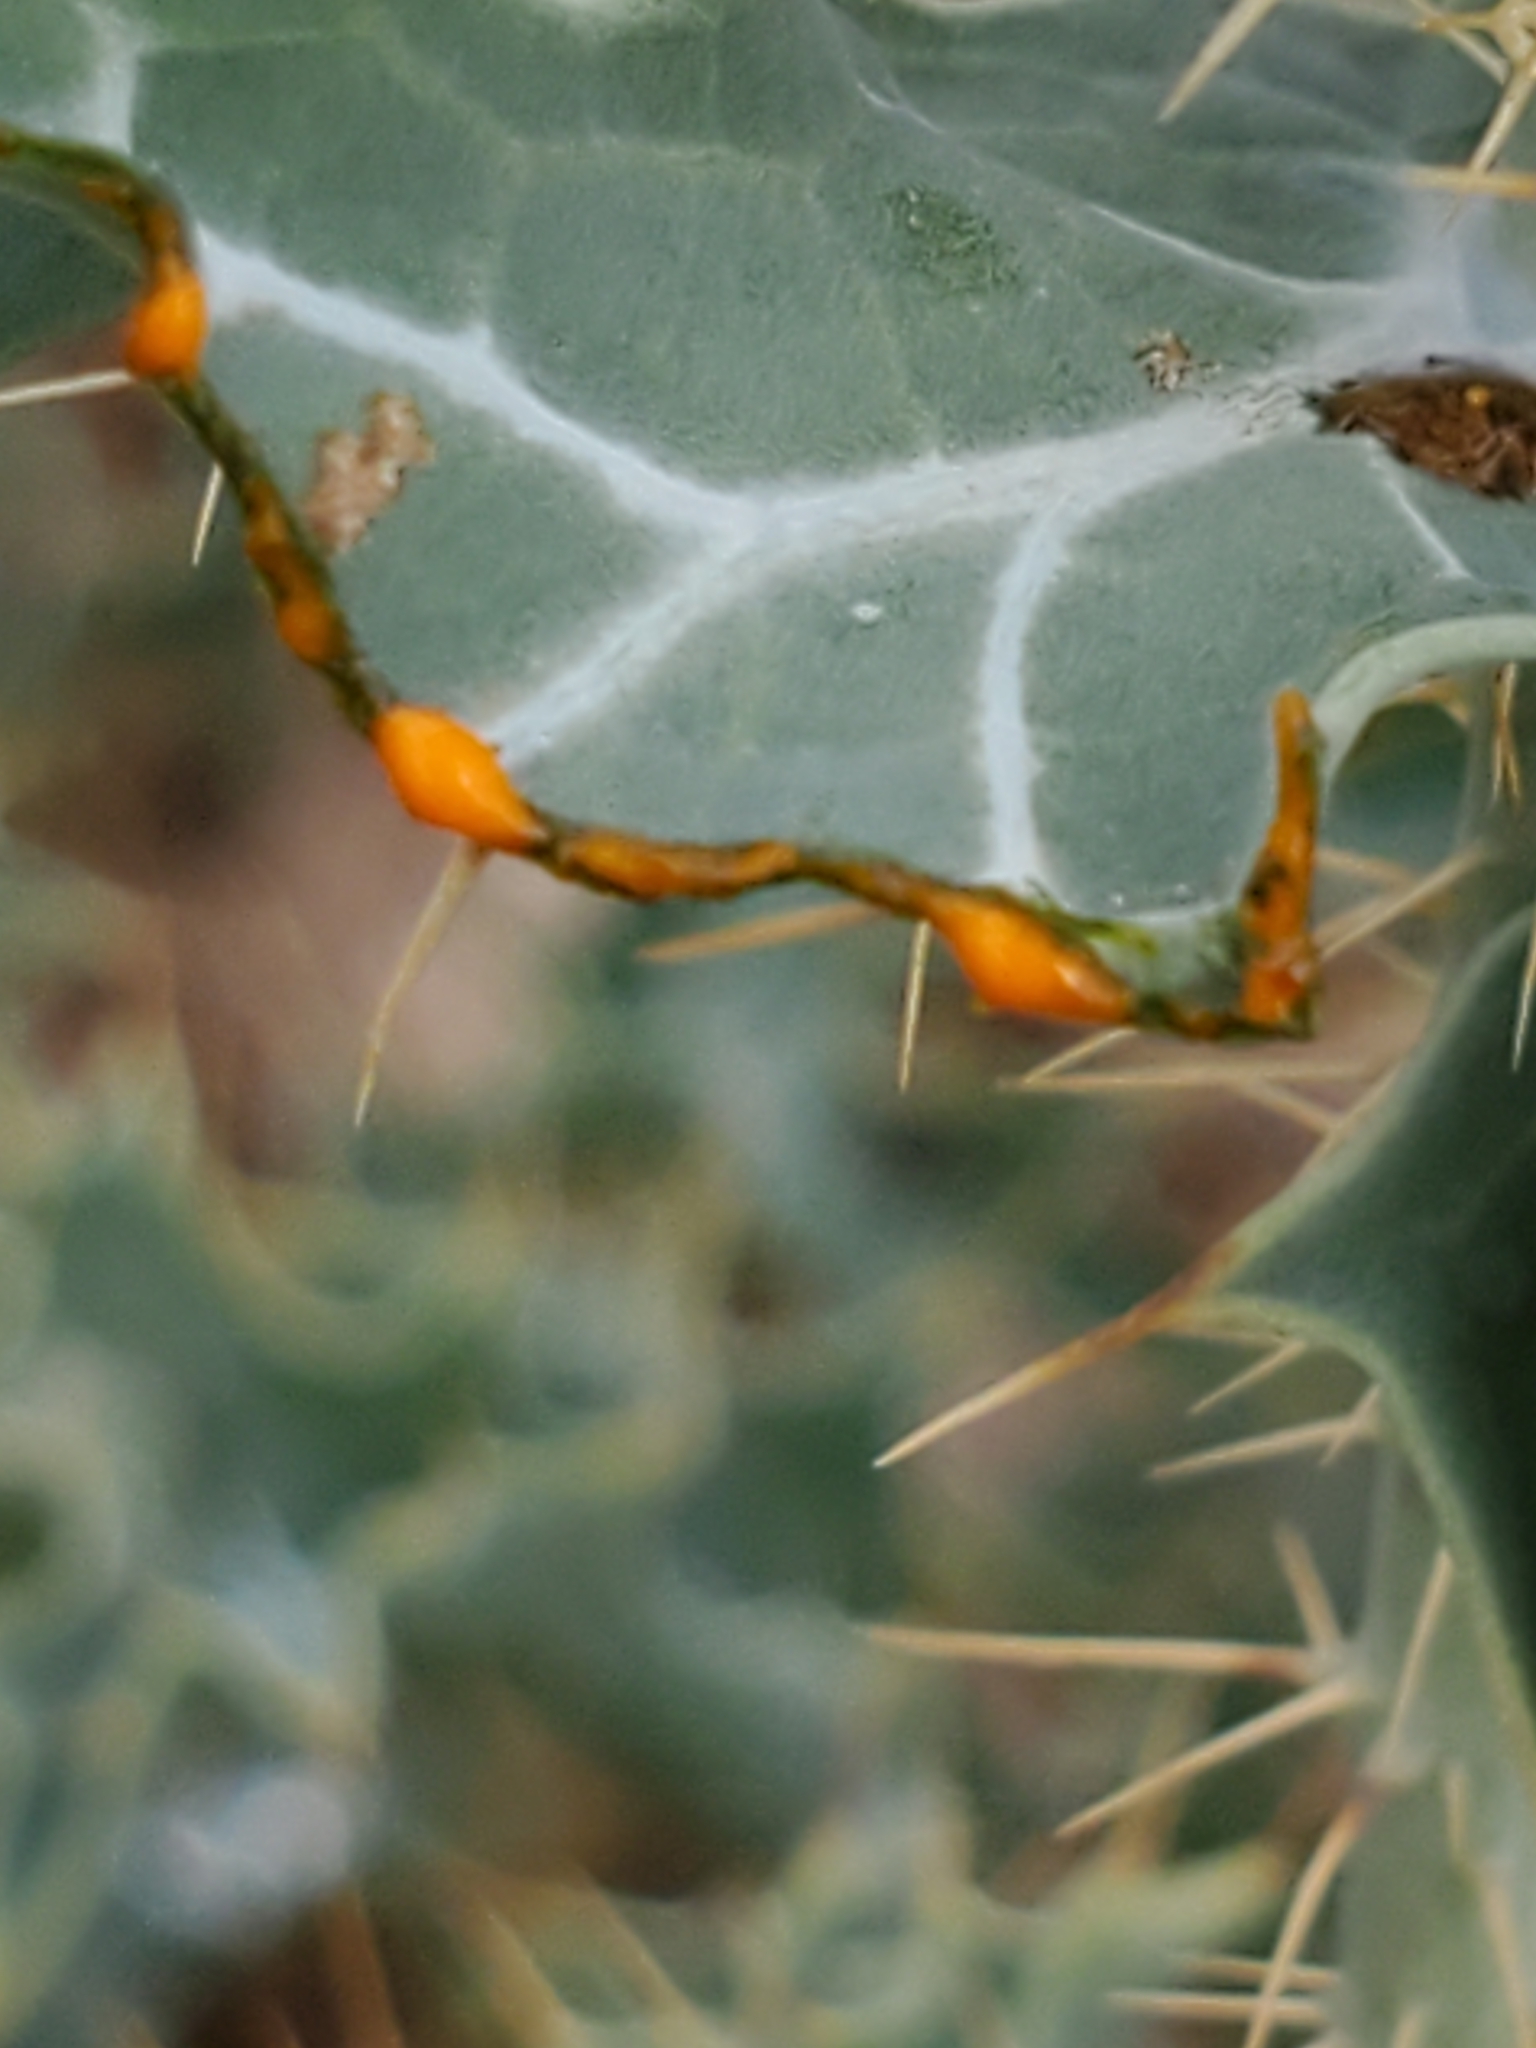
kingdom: Plantae
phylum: Tracheophyta
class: Magnoliopsida
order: Ranunculales
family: Papaveraceae
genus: Argemone
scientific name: Argemone aurantiaca
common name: Texas prickly-poppy
